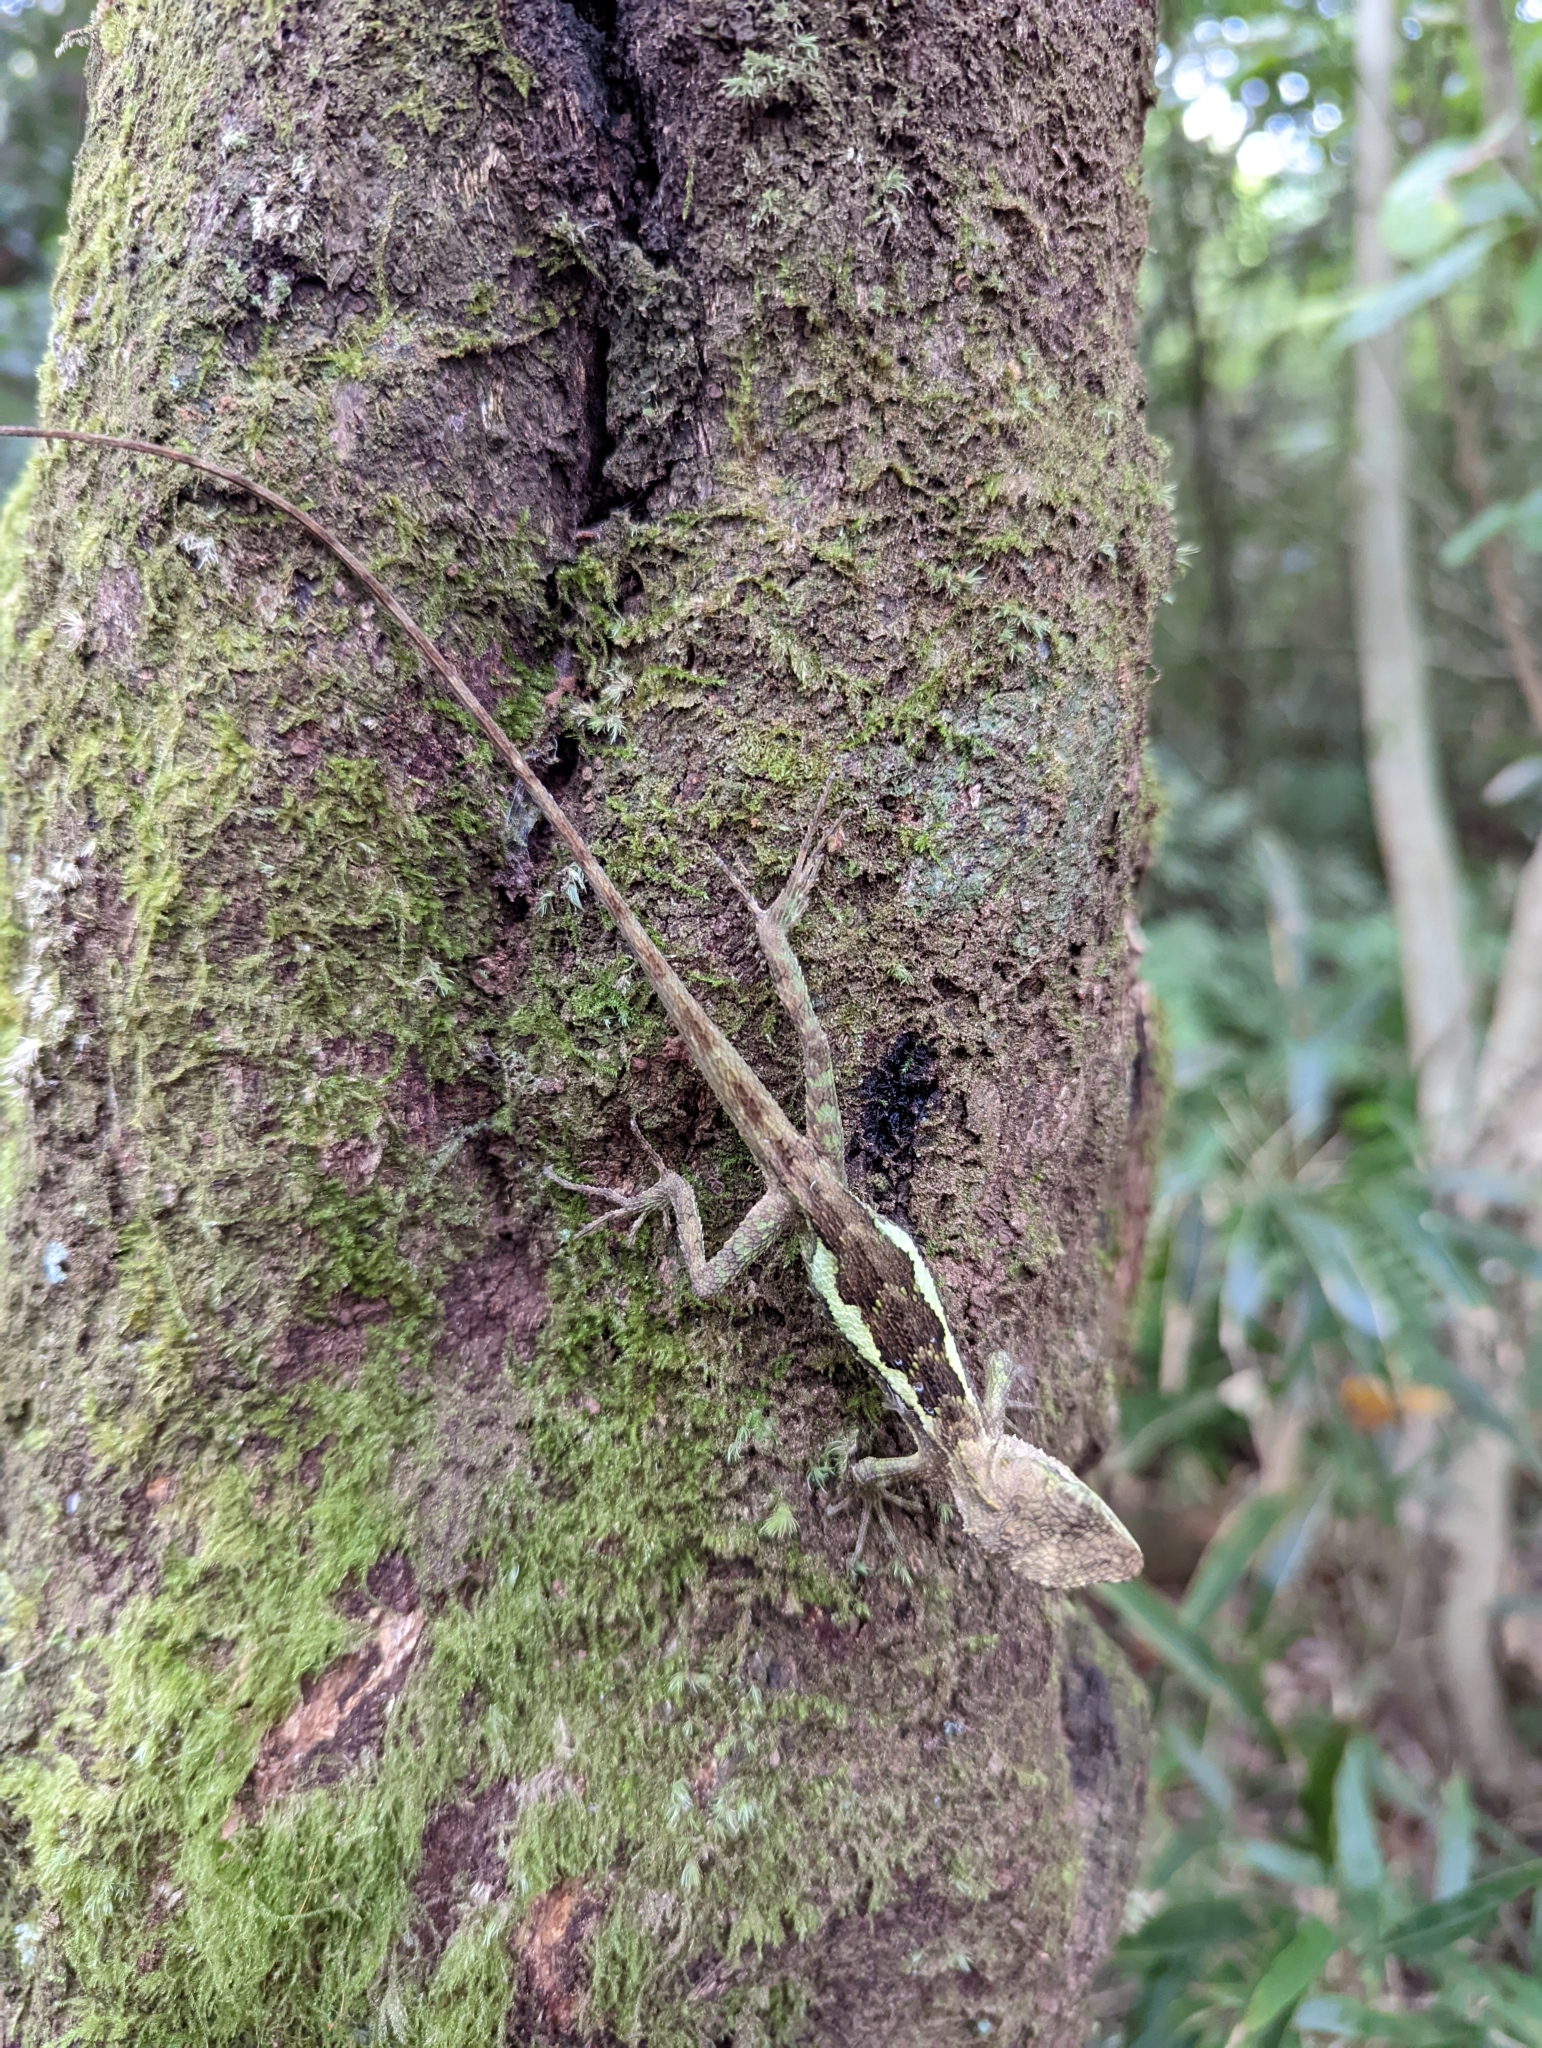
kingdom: Fungi
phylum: Basidiomycota
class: Agaricomycetes
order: Boletales
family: Diplocystidiaceae
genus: Diploderma
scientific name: Diploderma polygonatum
